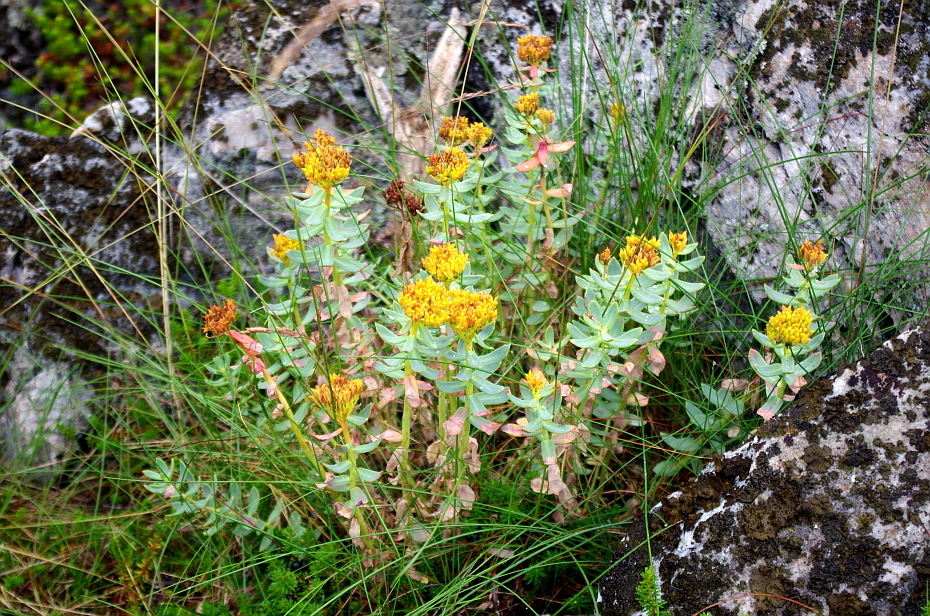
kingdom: Plantae
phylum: Tracheophyta
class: Magnoliopsida
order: Saxifragales
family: Crassulaceae
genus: Rhodiola
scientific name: Rhodiola rosea
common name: Roseroot
